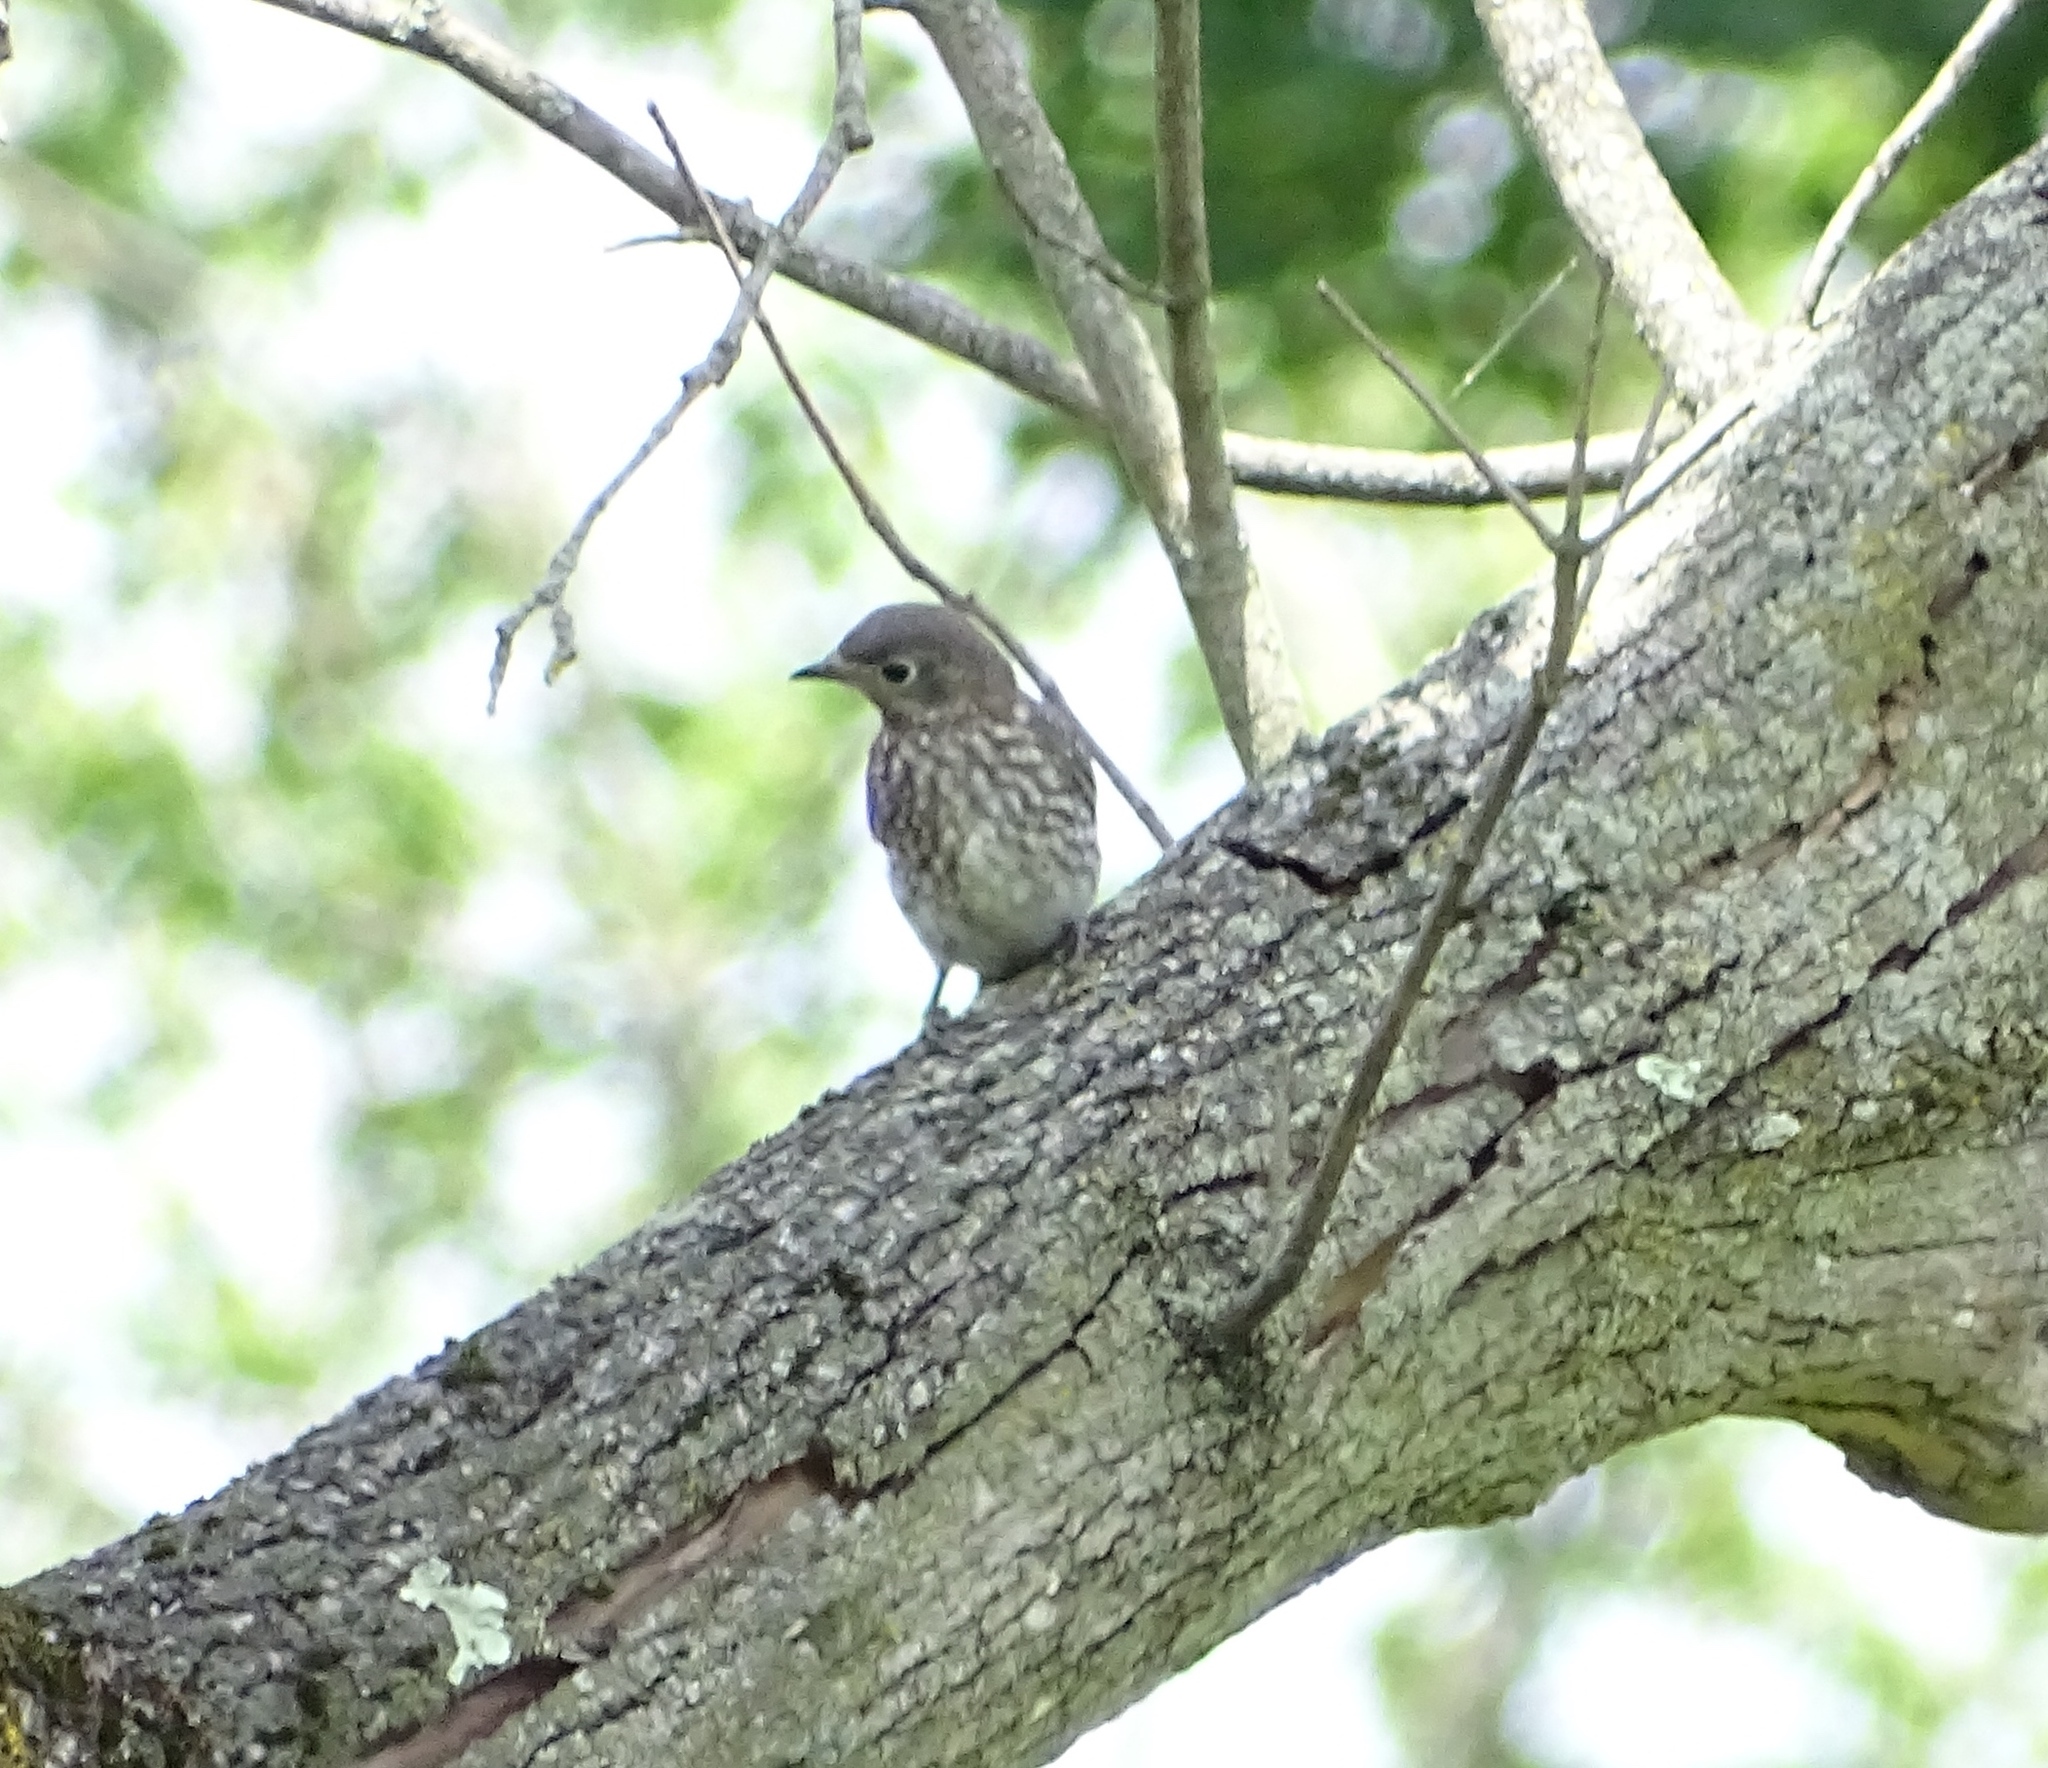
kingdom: Animalia
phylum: Chordata
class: Aves
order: Passeriformes
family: Turdidae
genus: Sialia
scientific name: Sialia sialis
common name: Eastern bluebird
